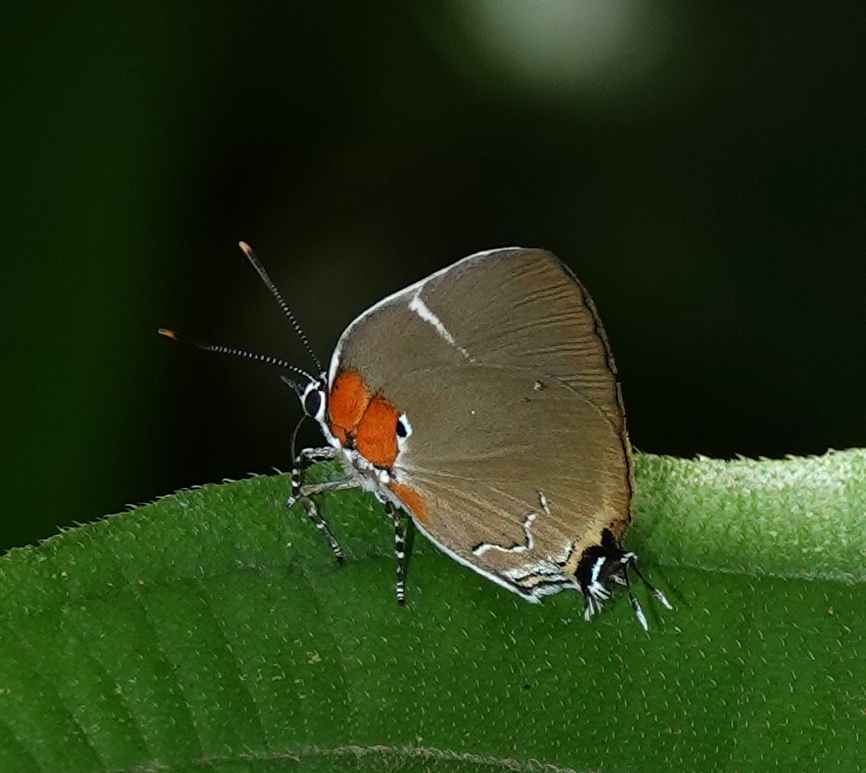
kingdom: Animalia
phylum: Arthropoda
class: Insecta
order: Lepidoptera
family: Lycaenidae
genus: Porthecla
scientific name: Porthecla
